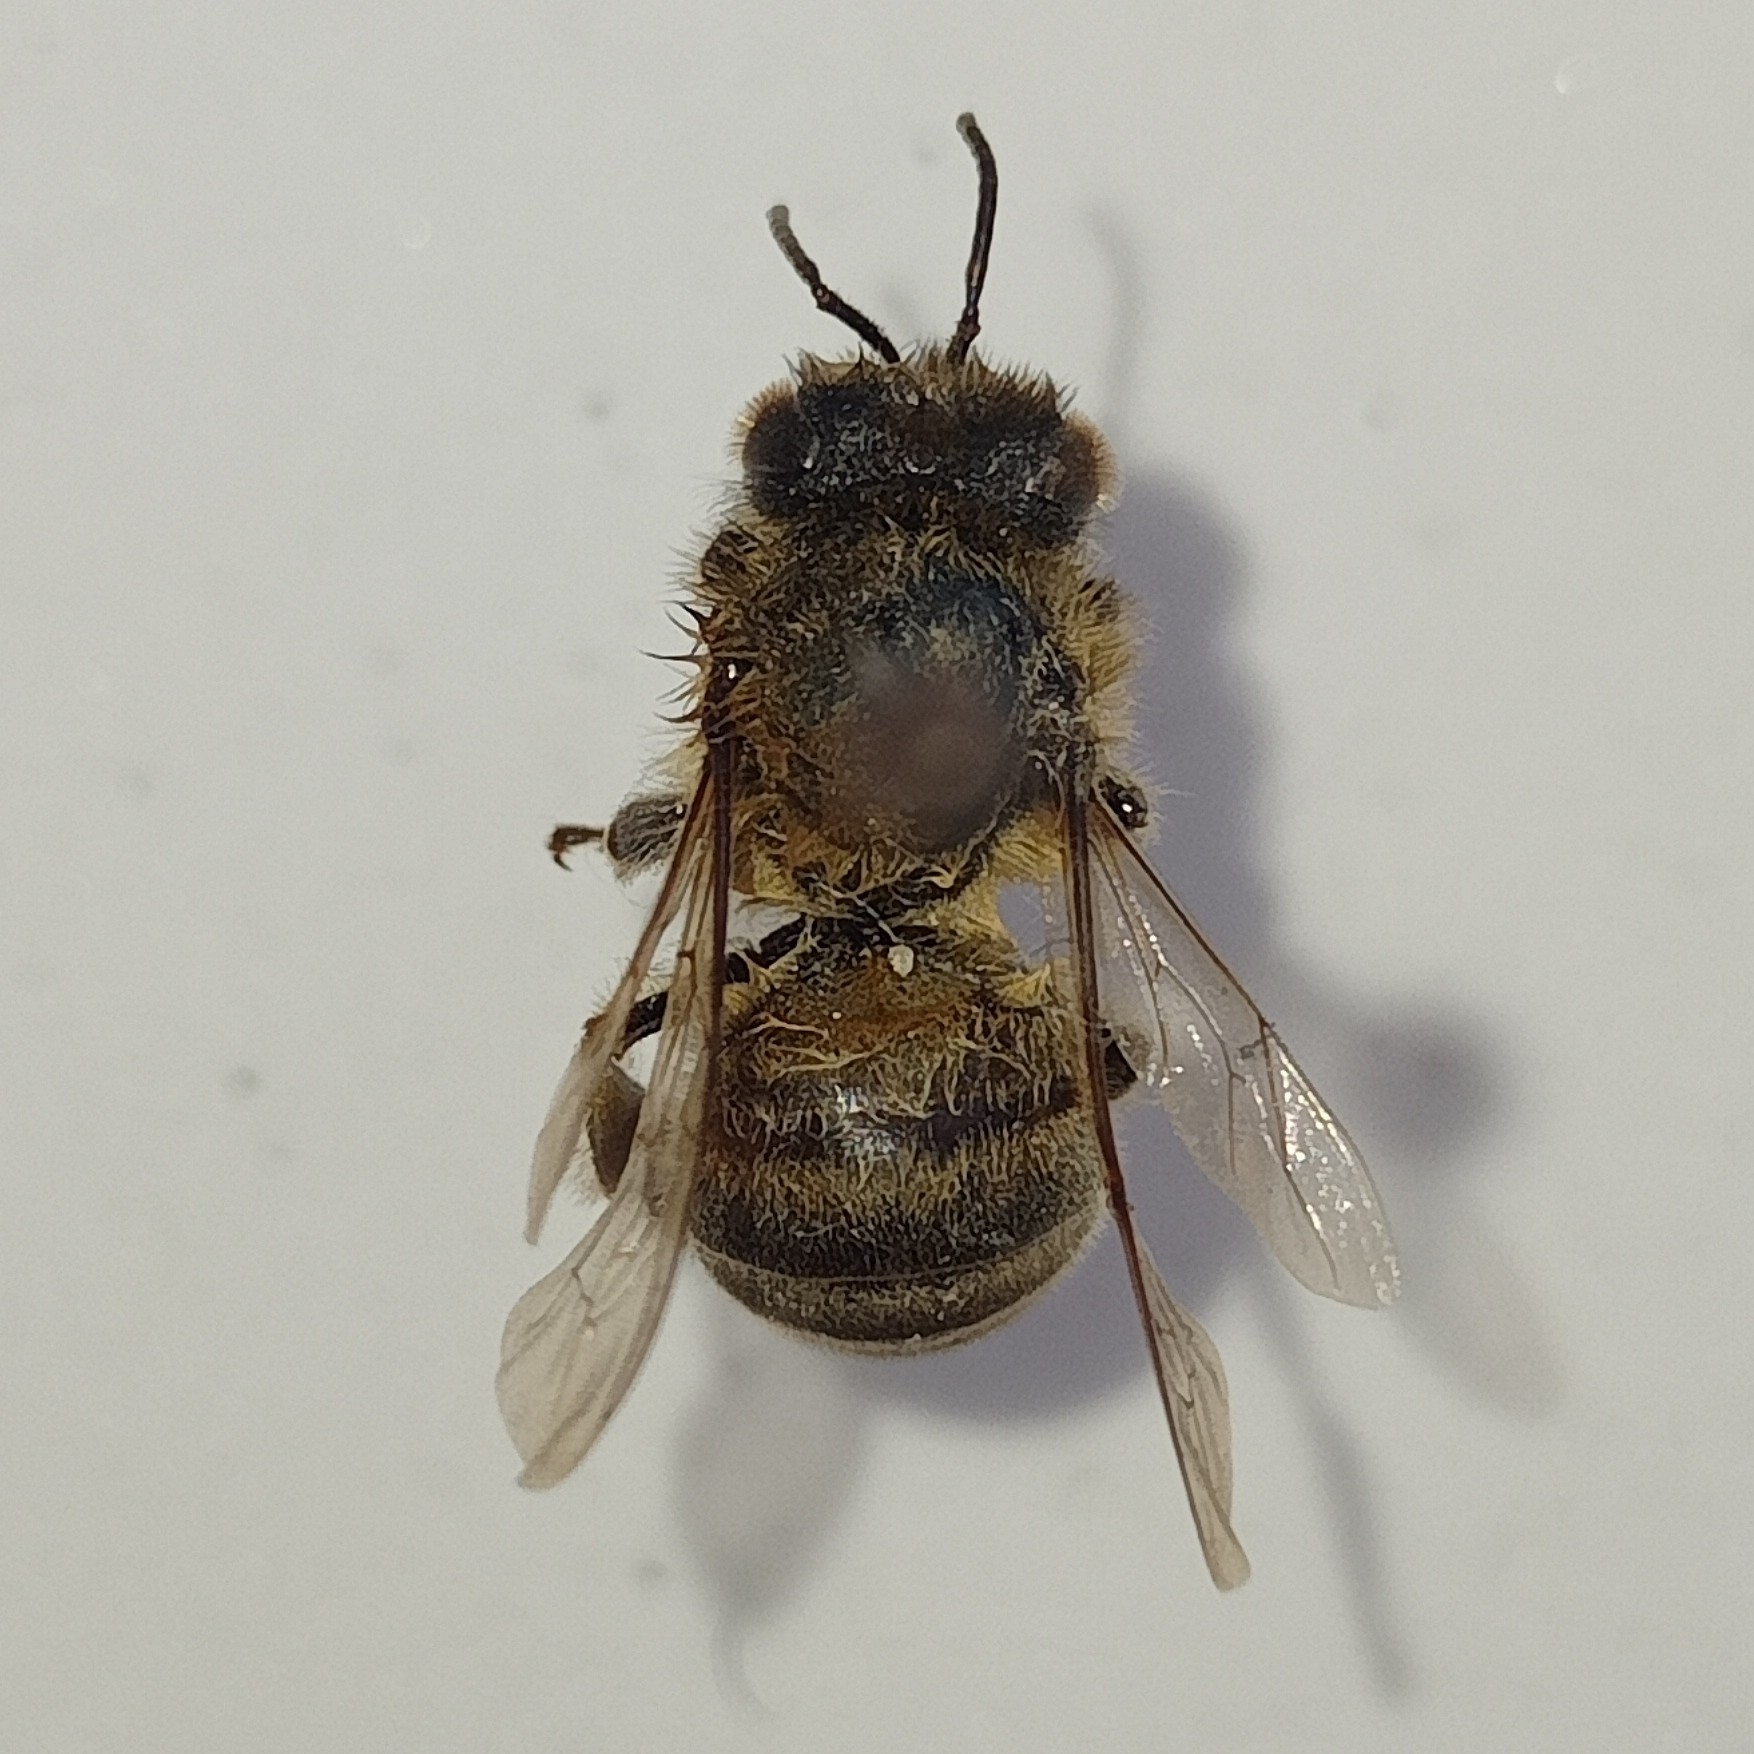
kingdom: Animalia
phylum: Arthropoda
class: Insecta
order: Hymenoptera
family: Apidae
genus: Apis
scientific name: Apis mellifera
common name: Honey bee
